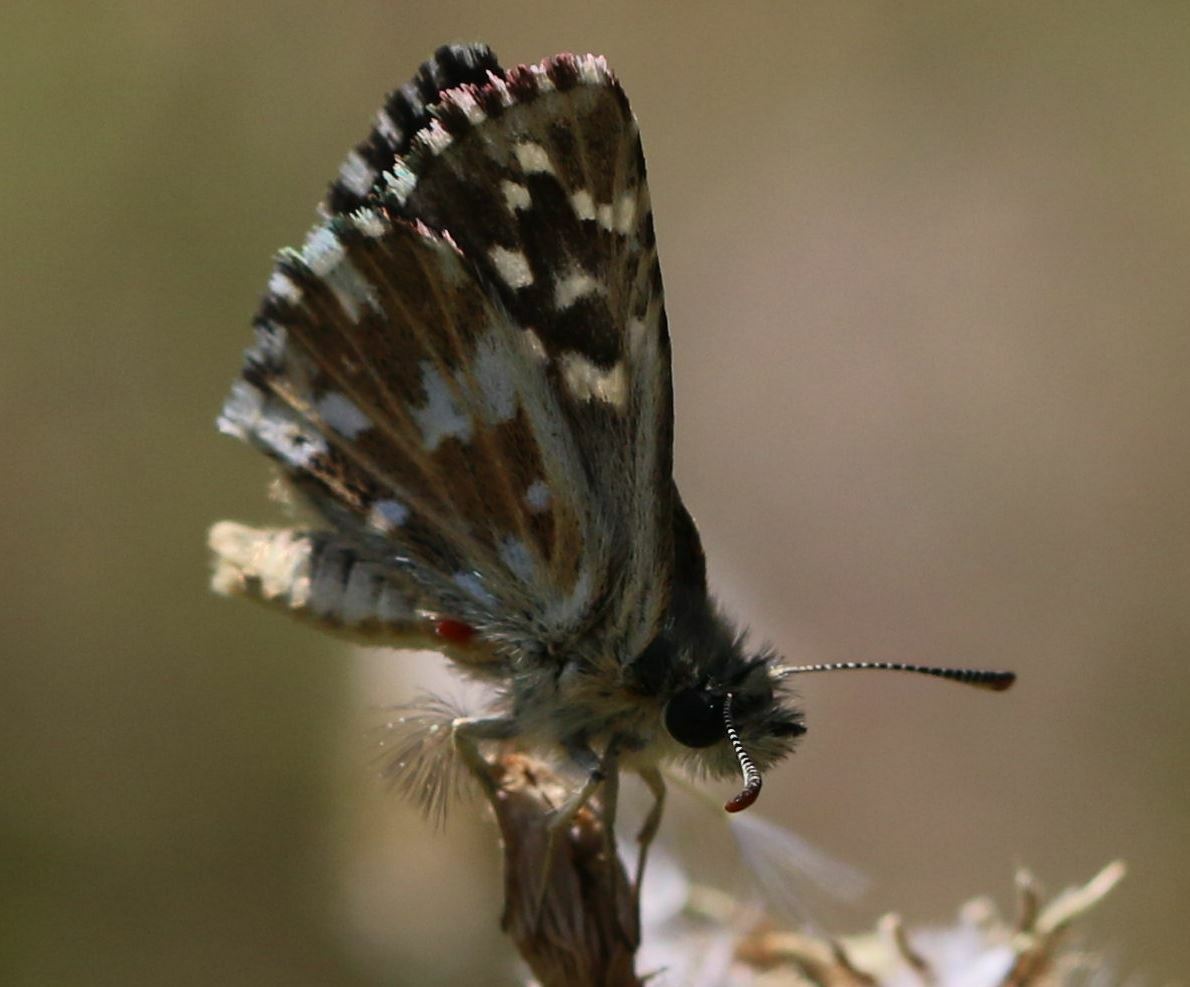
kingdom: Animalia
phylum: Arthropoda
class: Insecta
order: Lepidoptera
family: Hesperiidae
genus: Pyrgus
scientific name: Pyrgus malvoides
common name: Southern grizzled skipper
